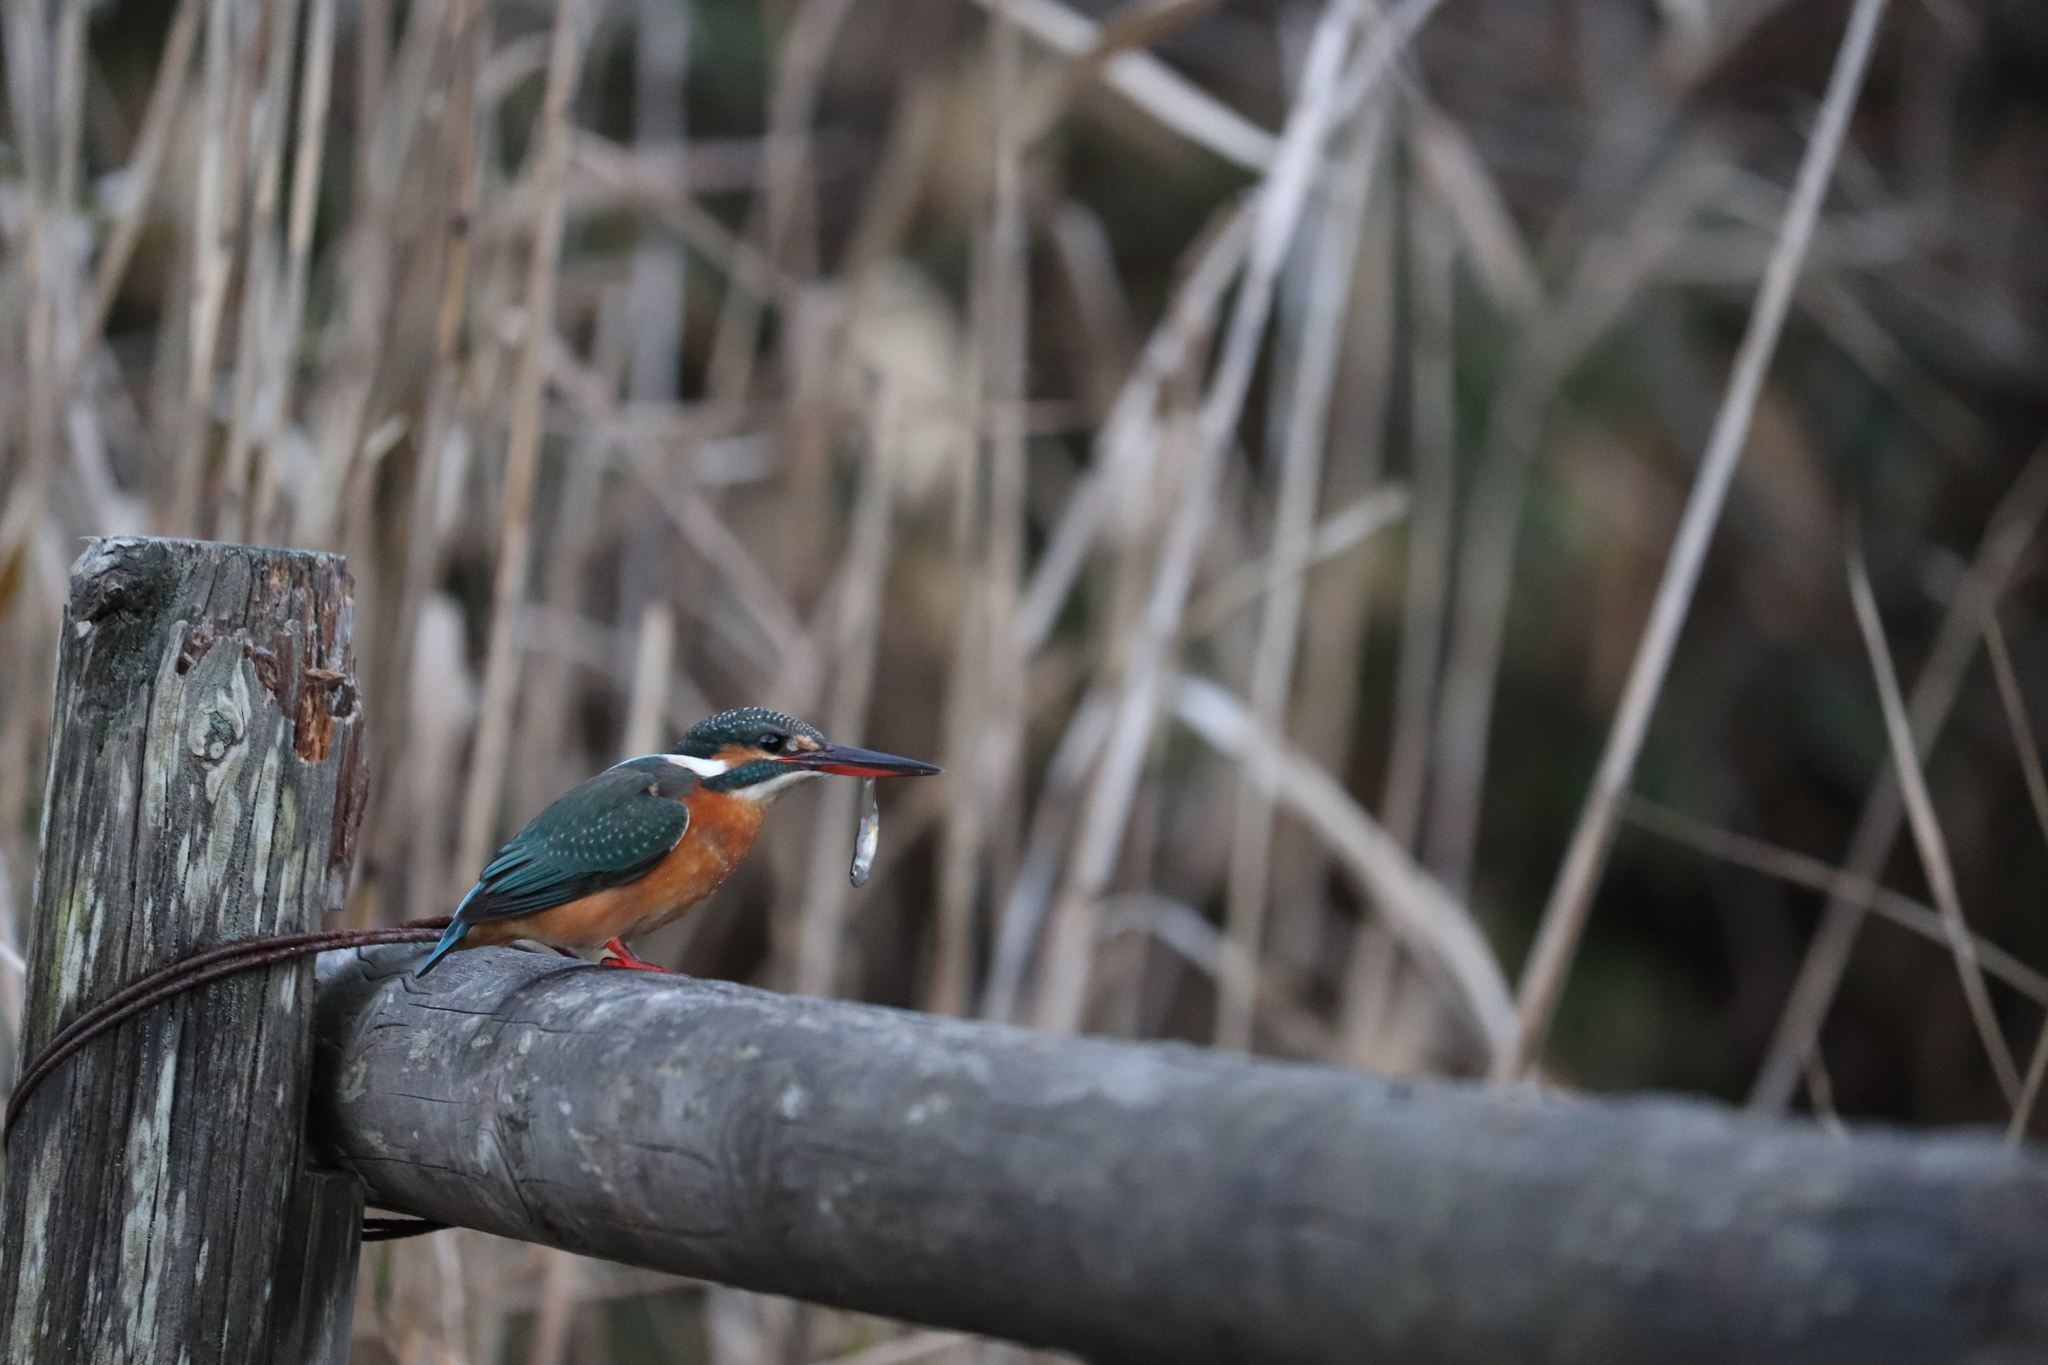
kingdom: Animalia
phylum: Chordata
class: Aves
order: Coraciiformes
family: Alcedinidae
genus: Alcedo
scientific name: Alcedo atthis
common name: Common kingfisher
